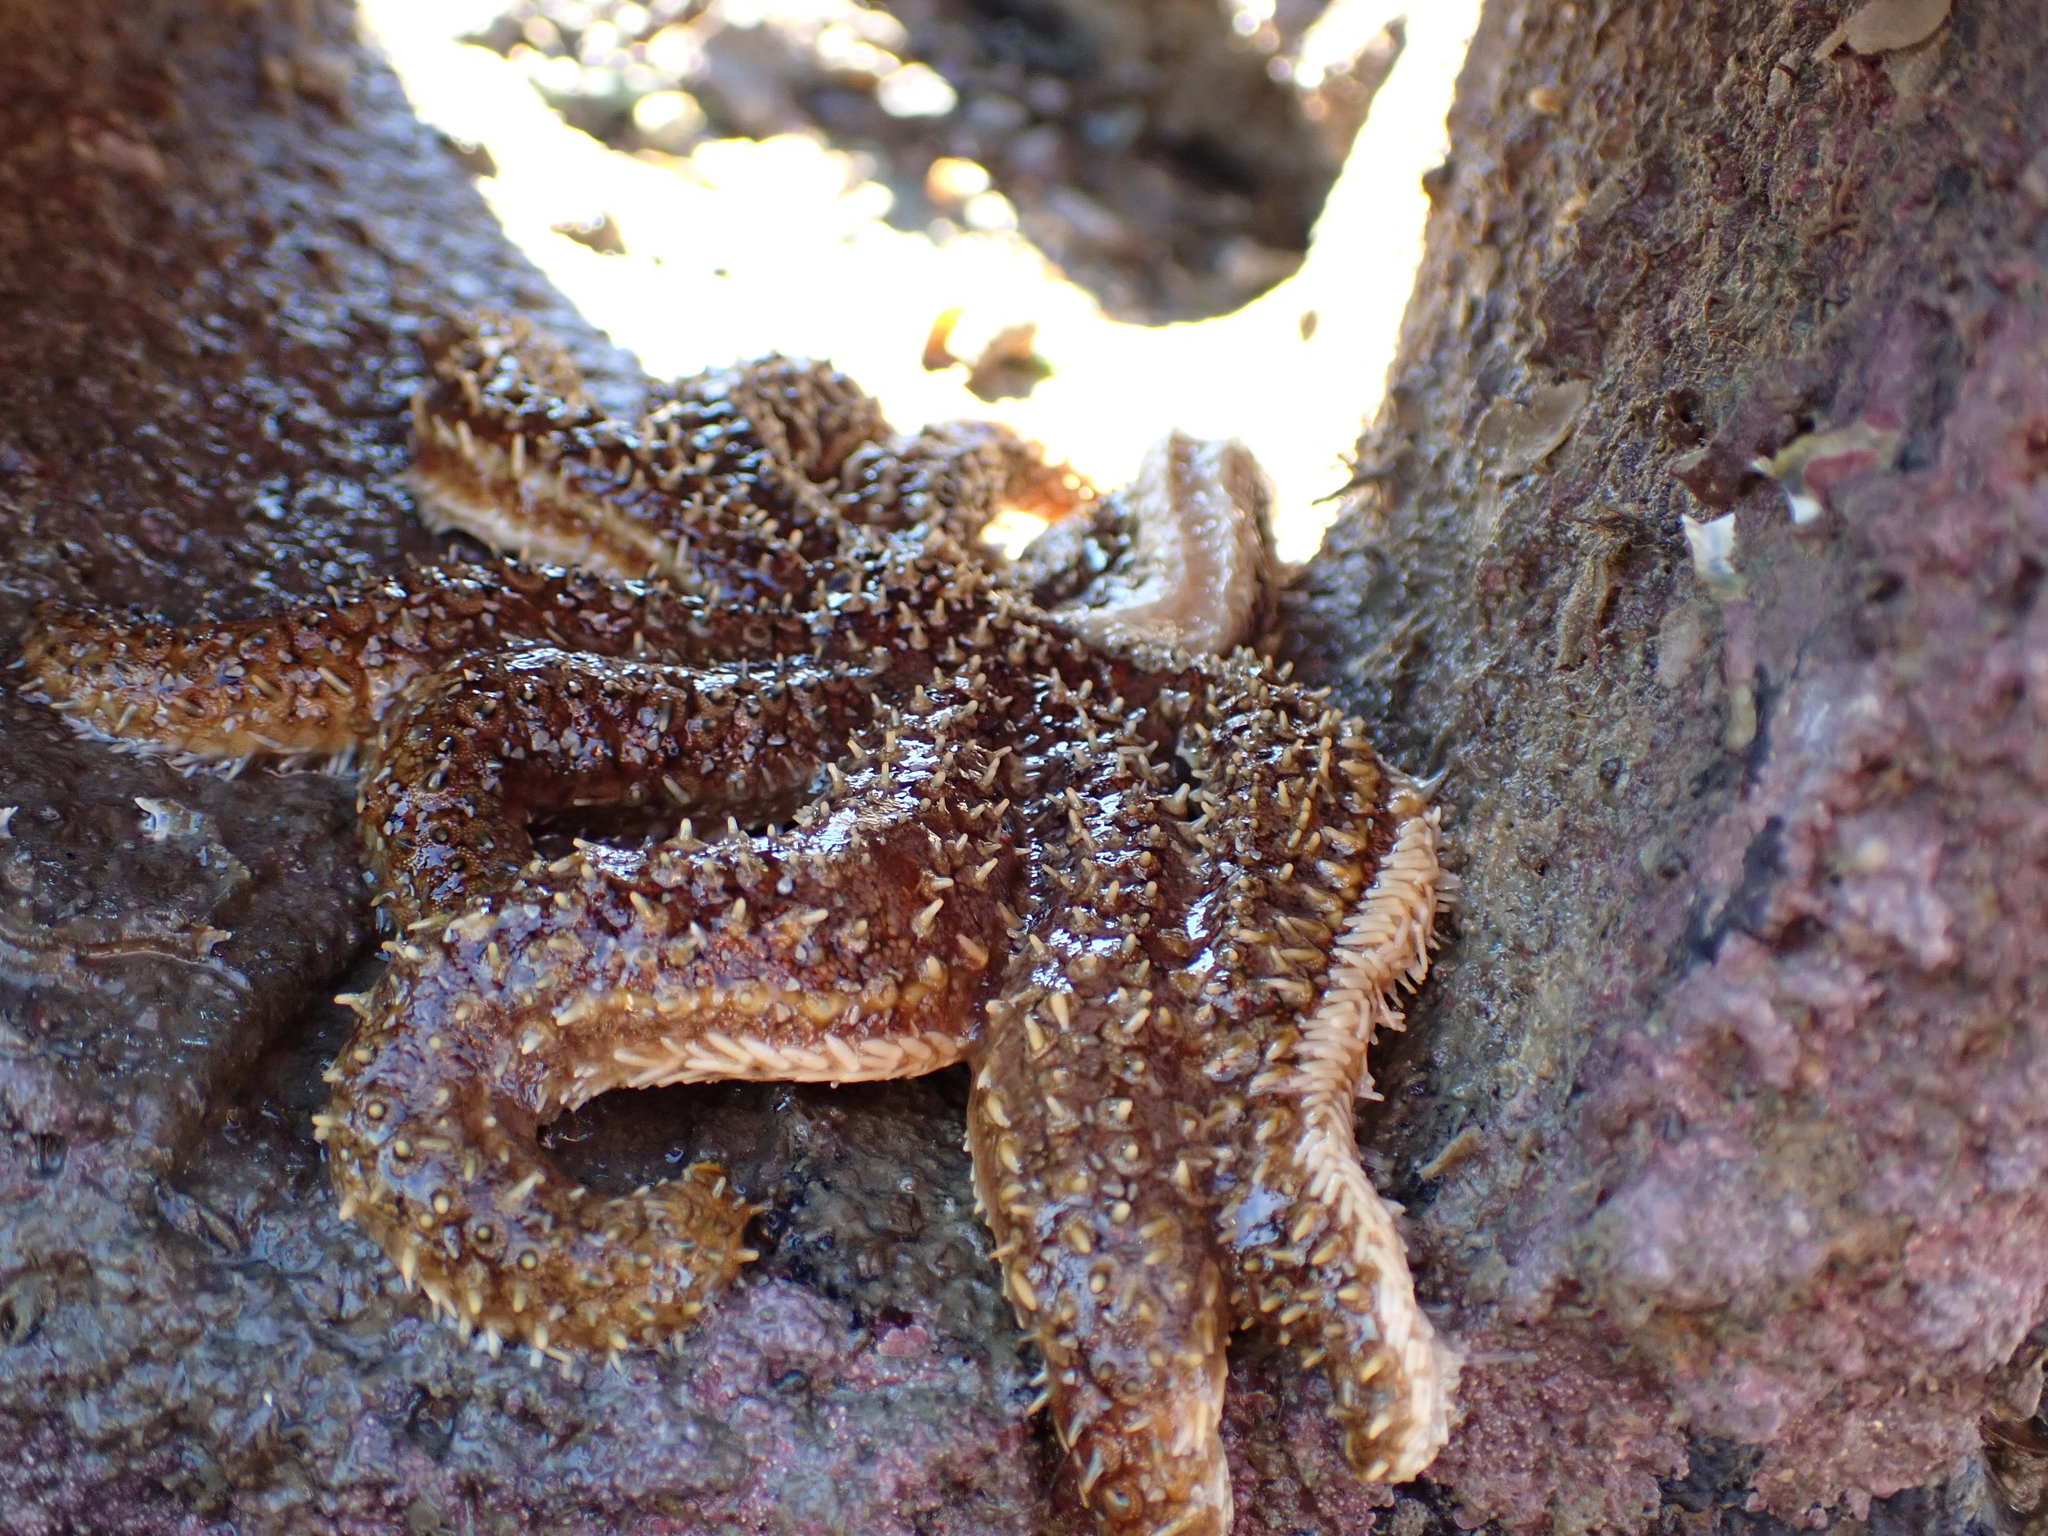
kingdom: Animalia
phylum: Echinodermata
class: Asteroidea
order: Forcipulatida
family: Asteriidae
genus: Coscinasterias
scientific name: Coscinasterias muricata
